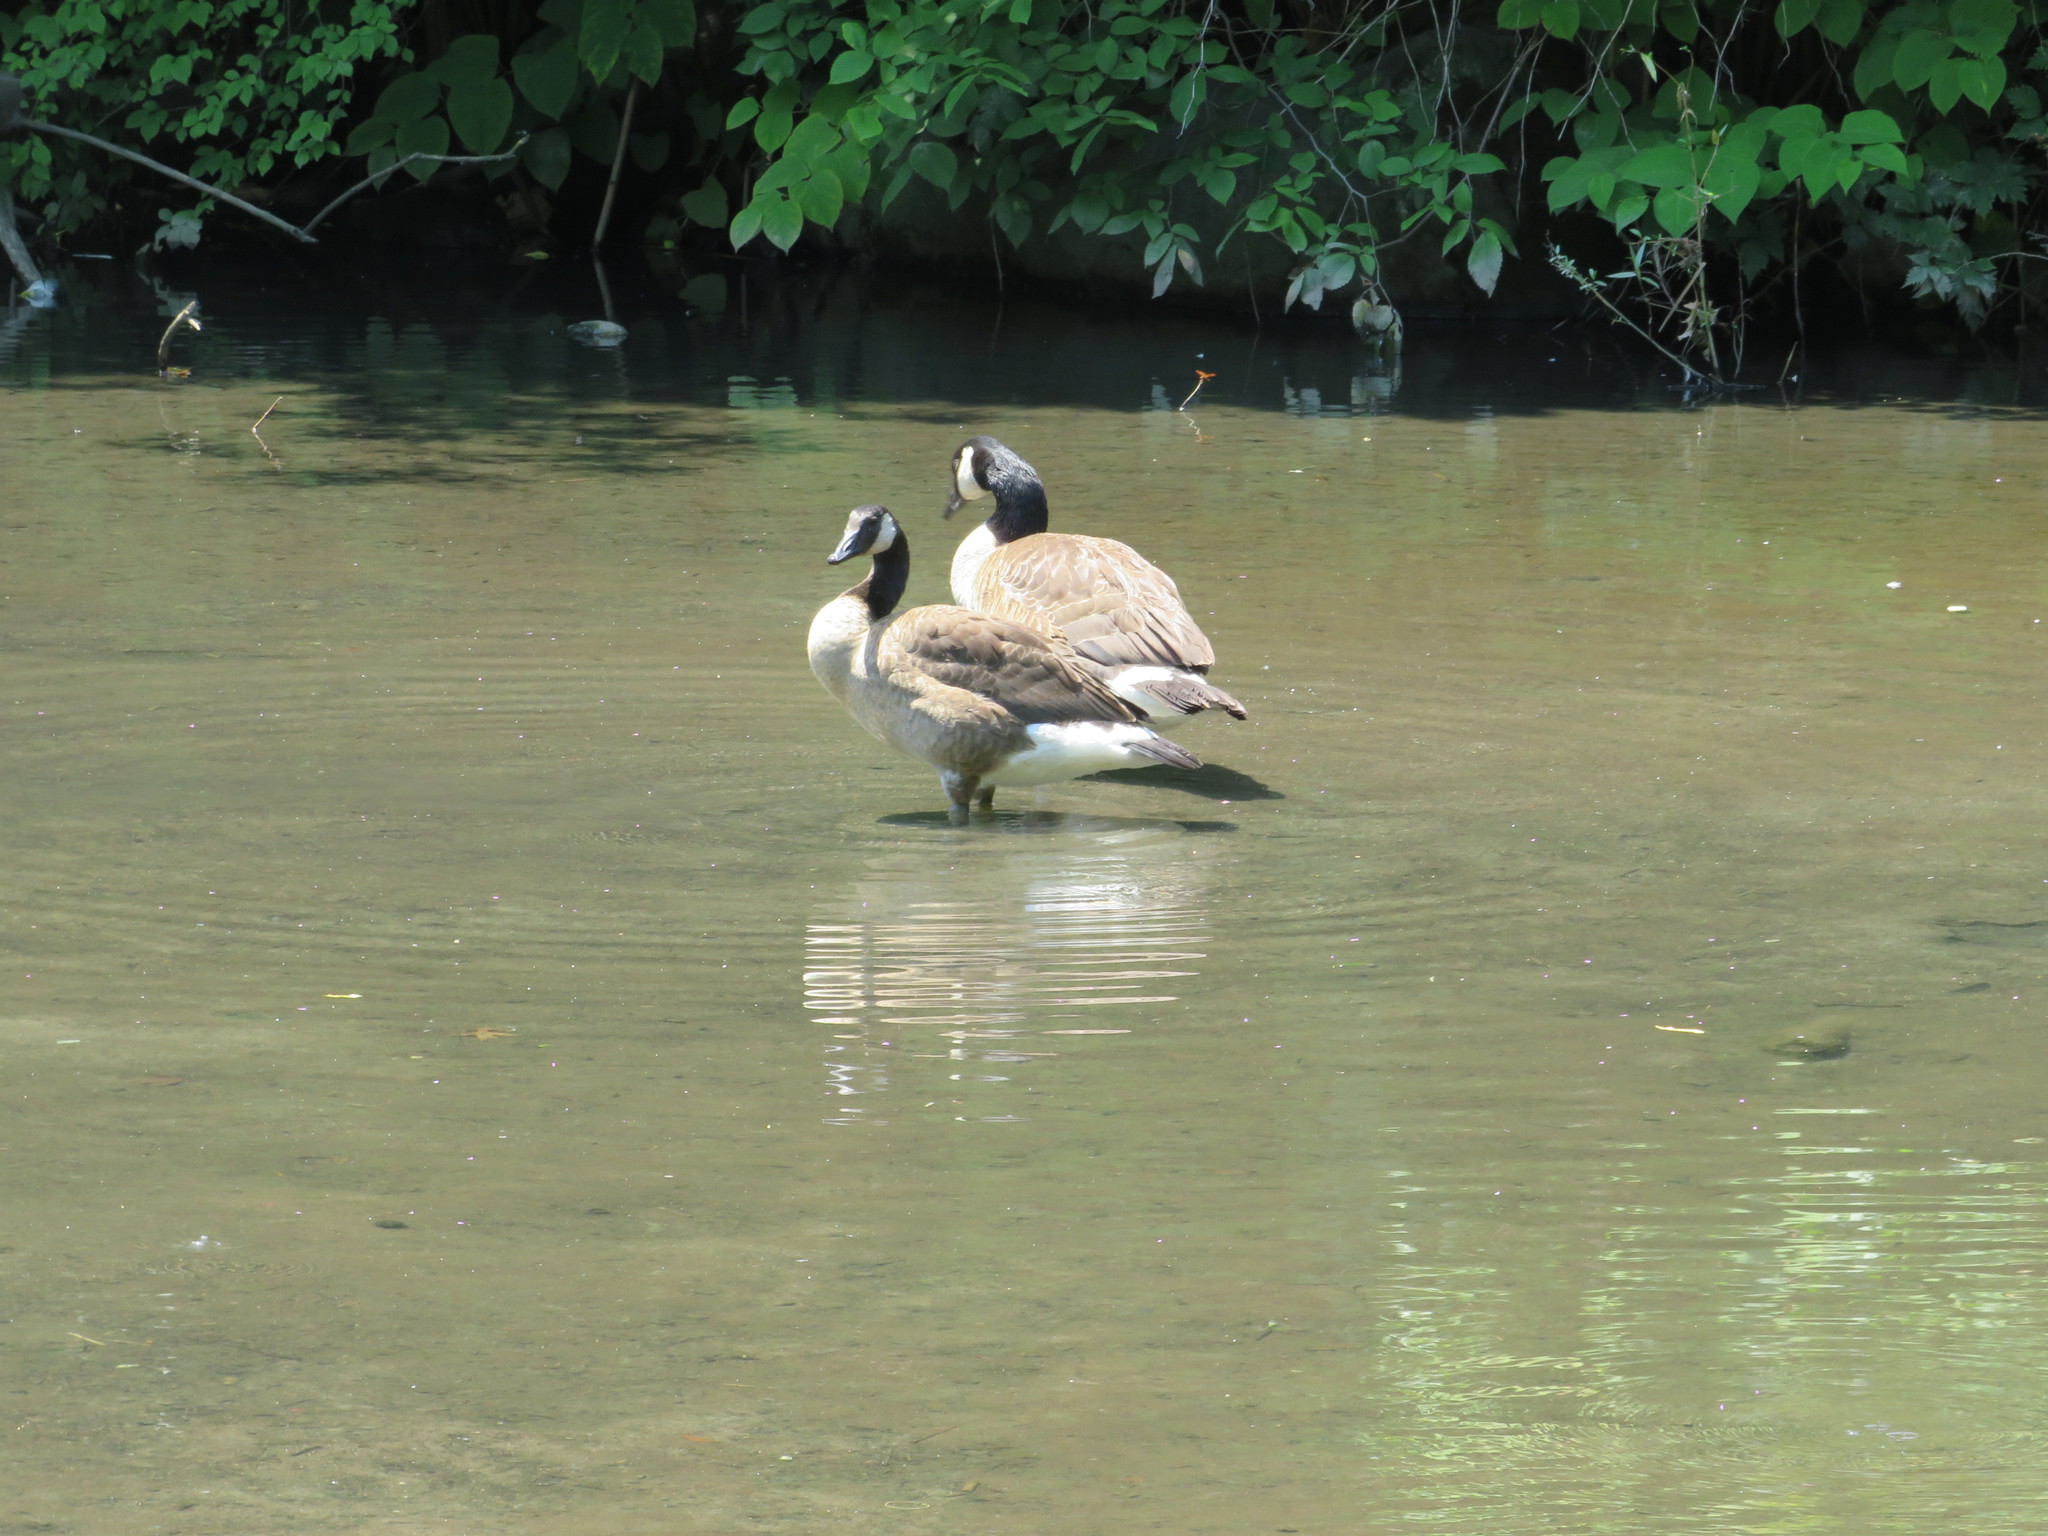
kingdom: Animalia
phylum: Chordata
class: Aves
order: Anseriformes
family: Anatidae
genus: Branta
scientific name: Branta canadensis
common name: Canada goose
